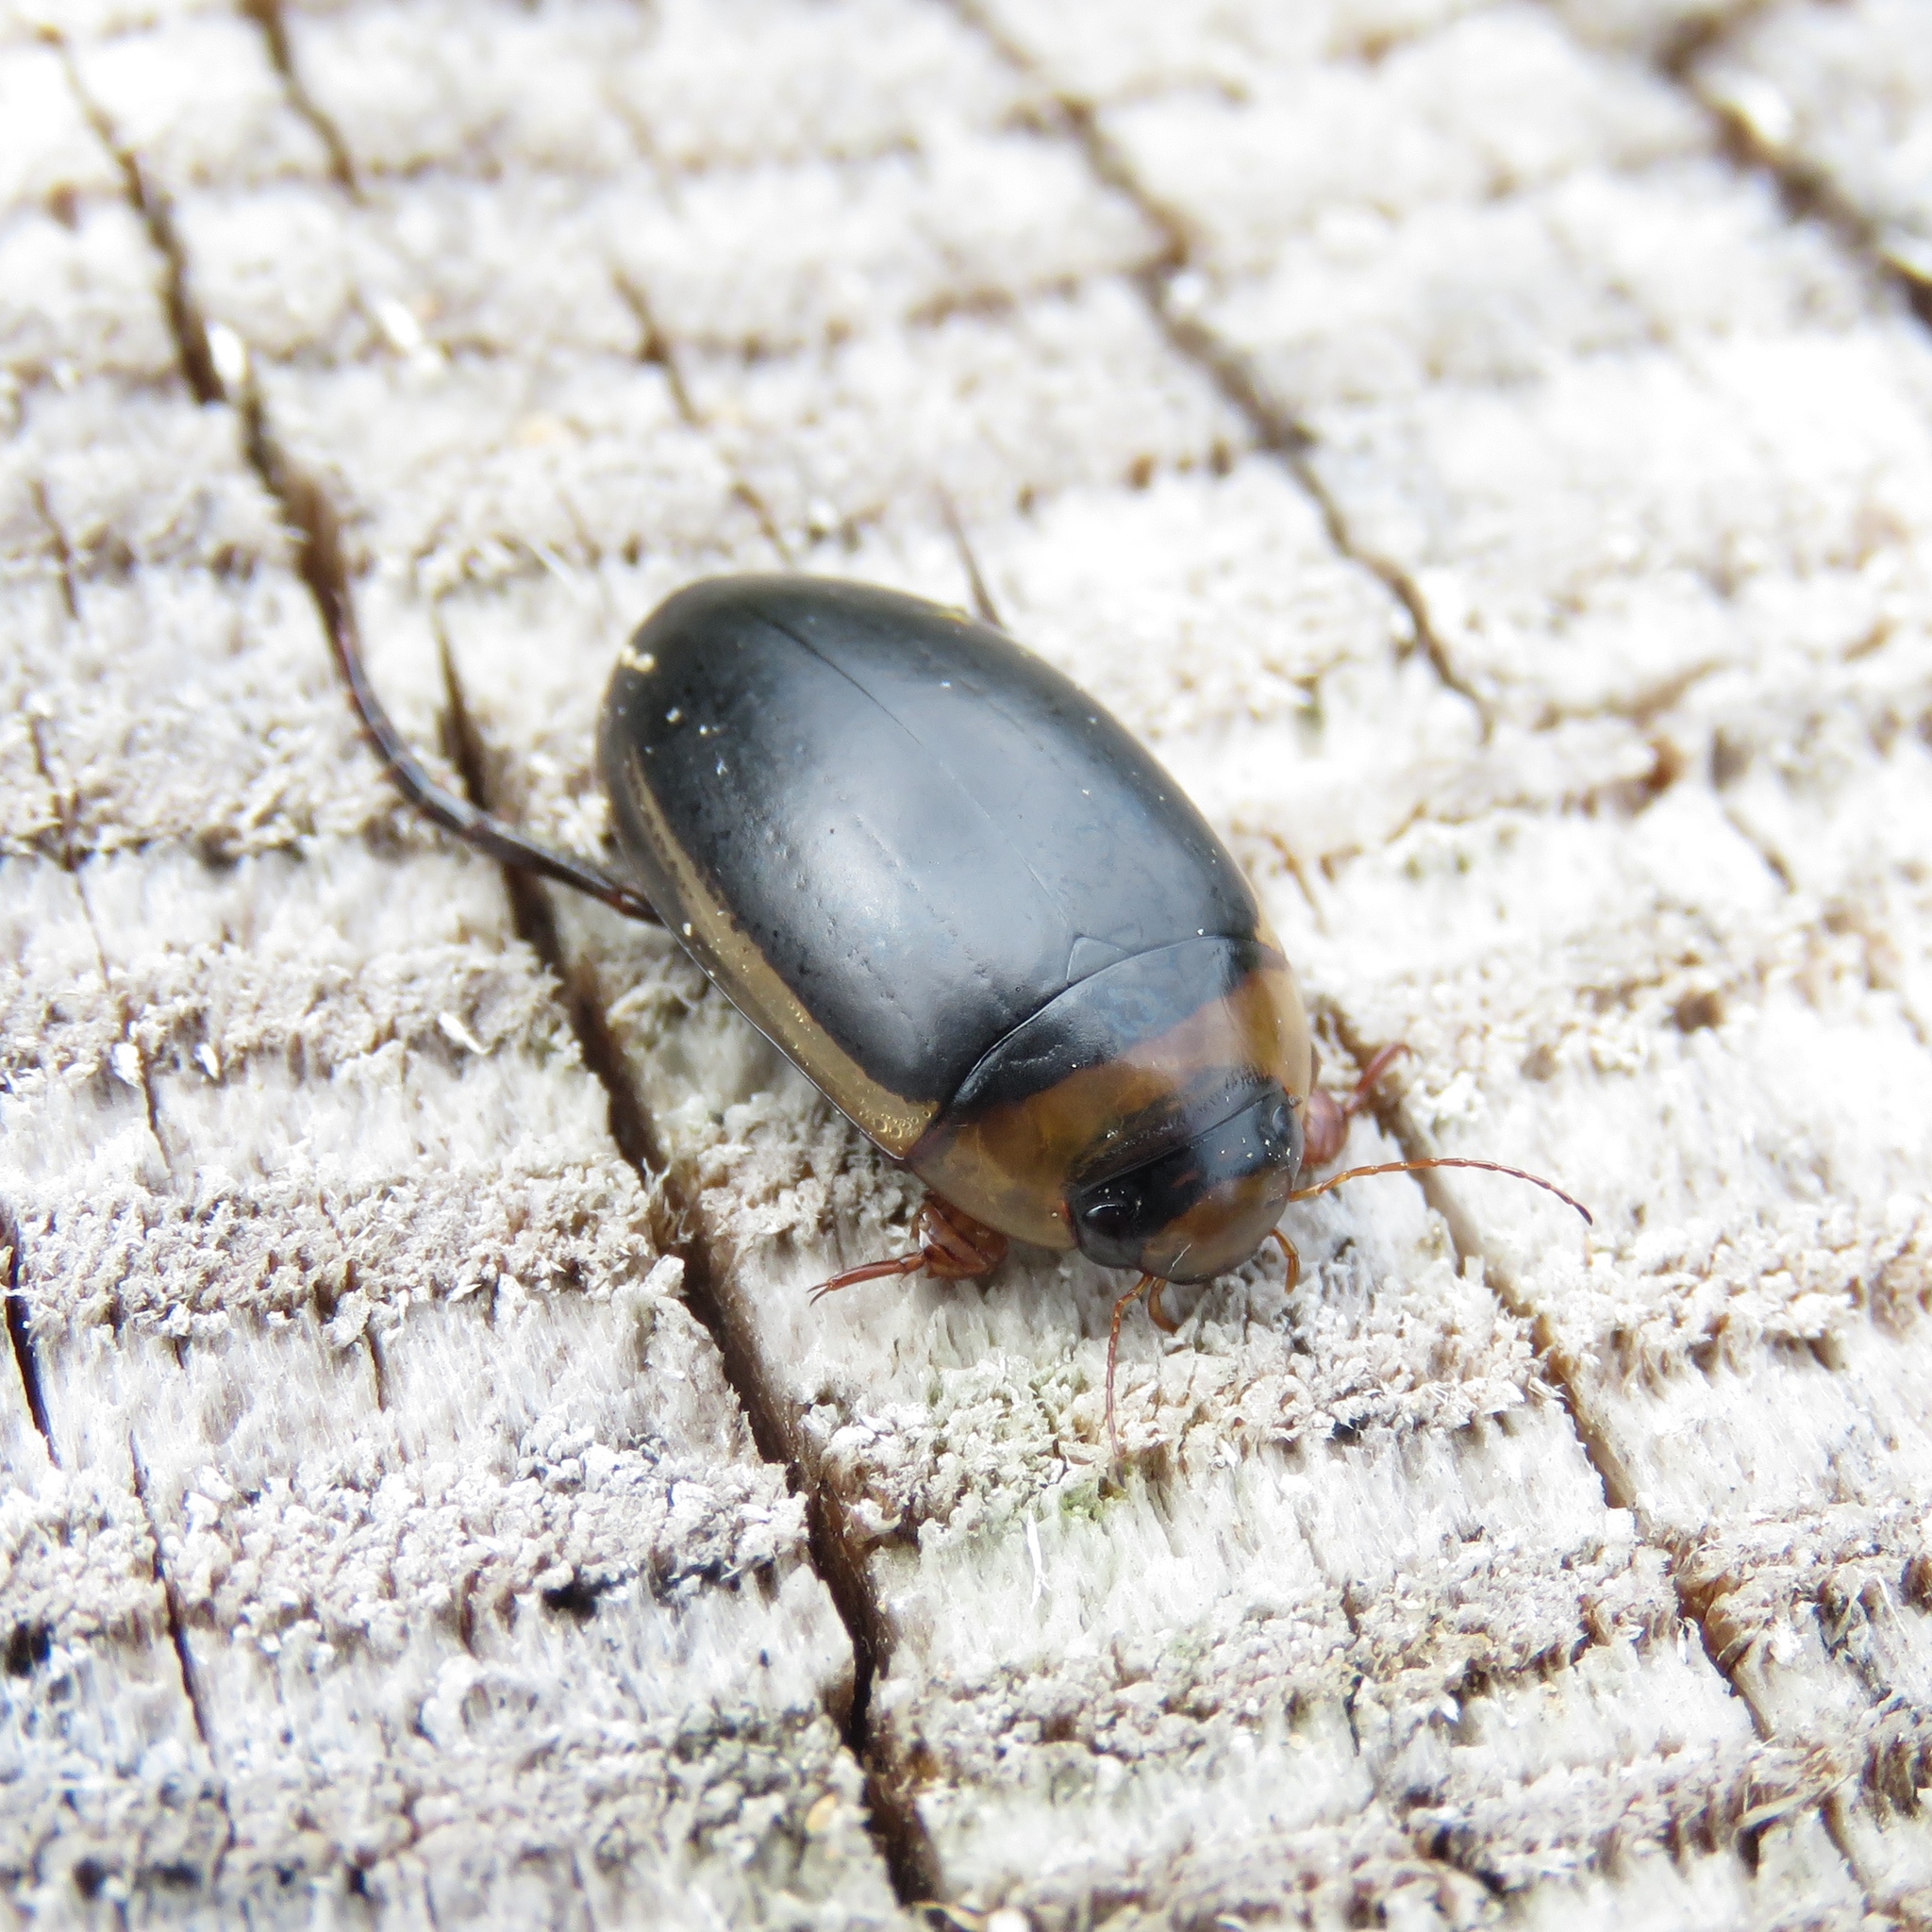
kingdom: Animalia
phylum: Arthropoda
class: Insecta
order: Coleoptera
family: Dytiscidae
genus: Hydaticus
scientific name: Hydaticus aruspex
